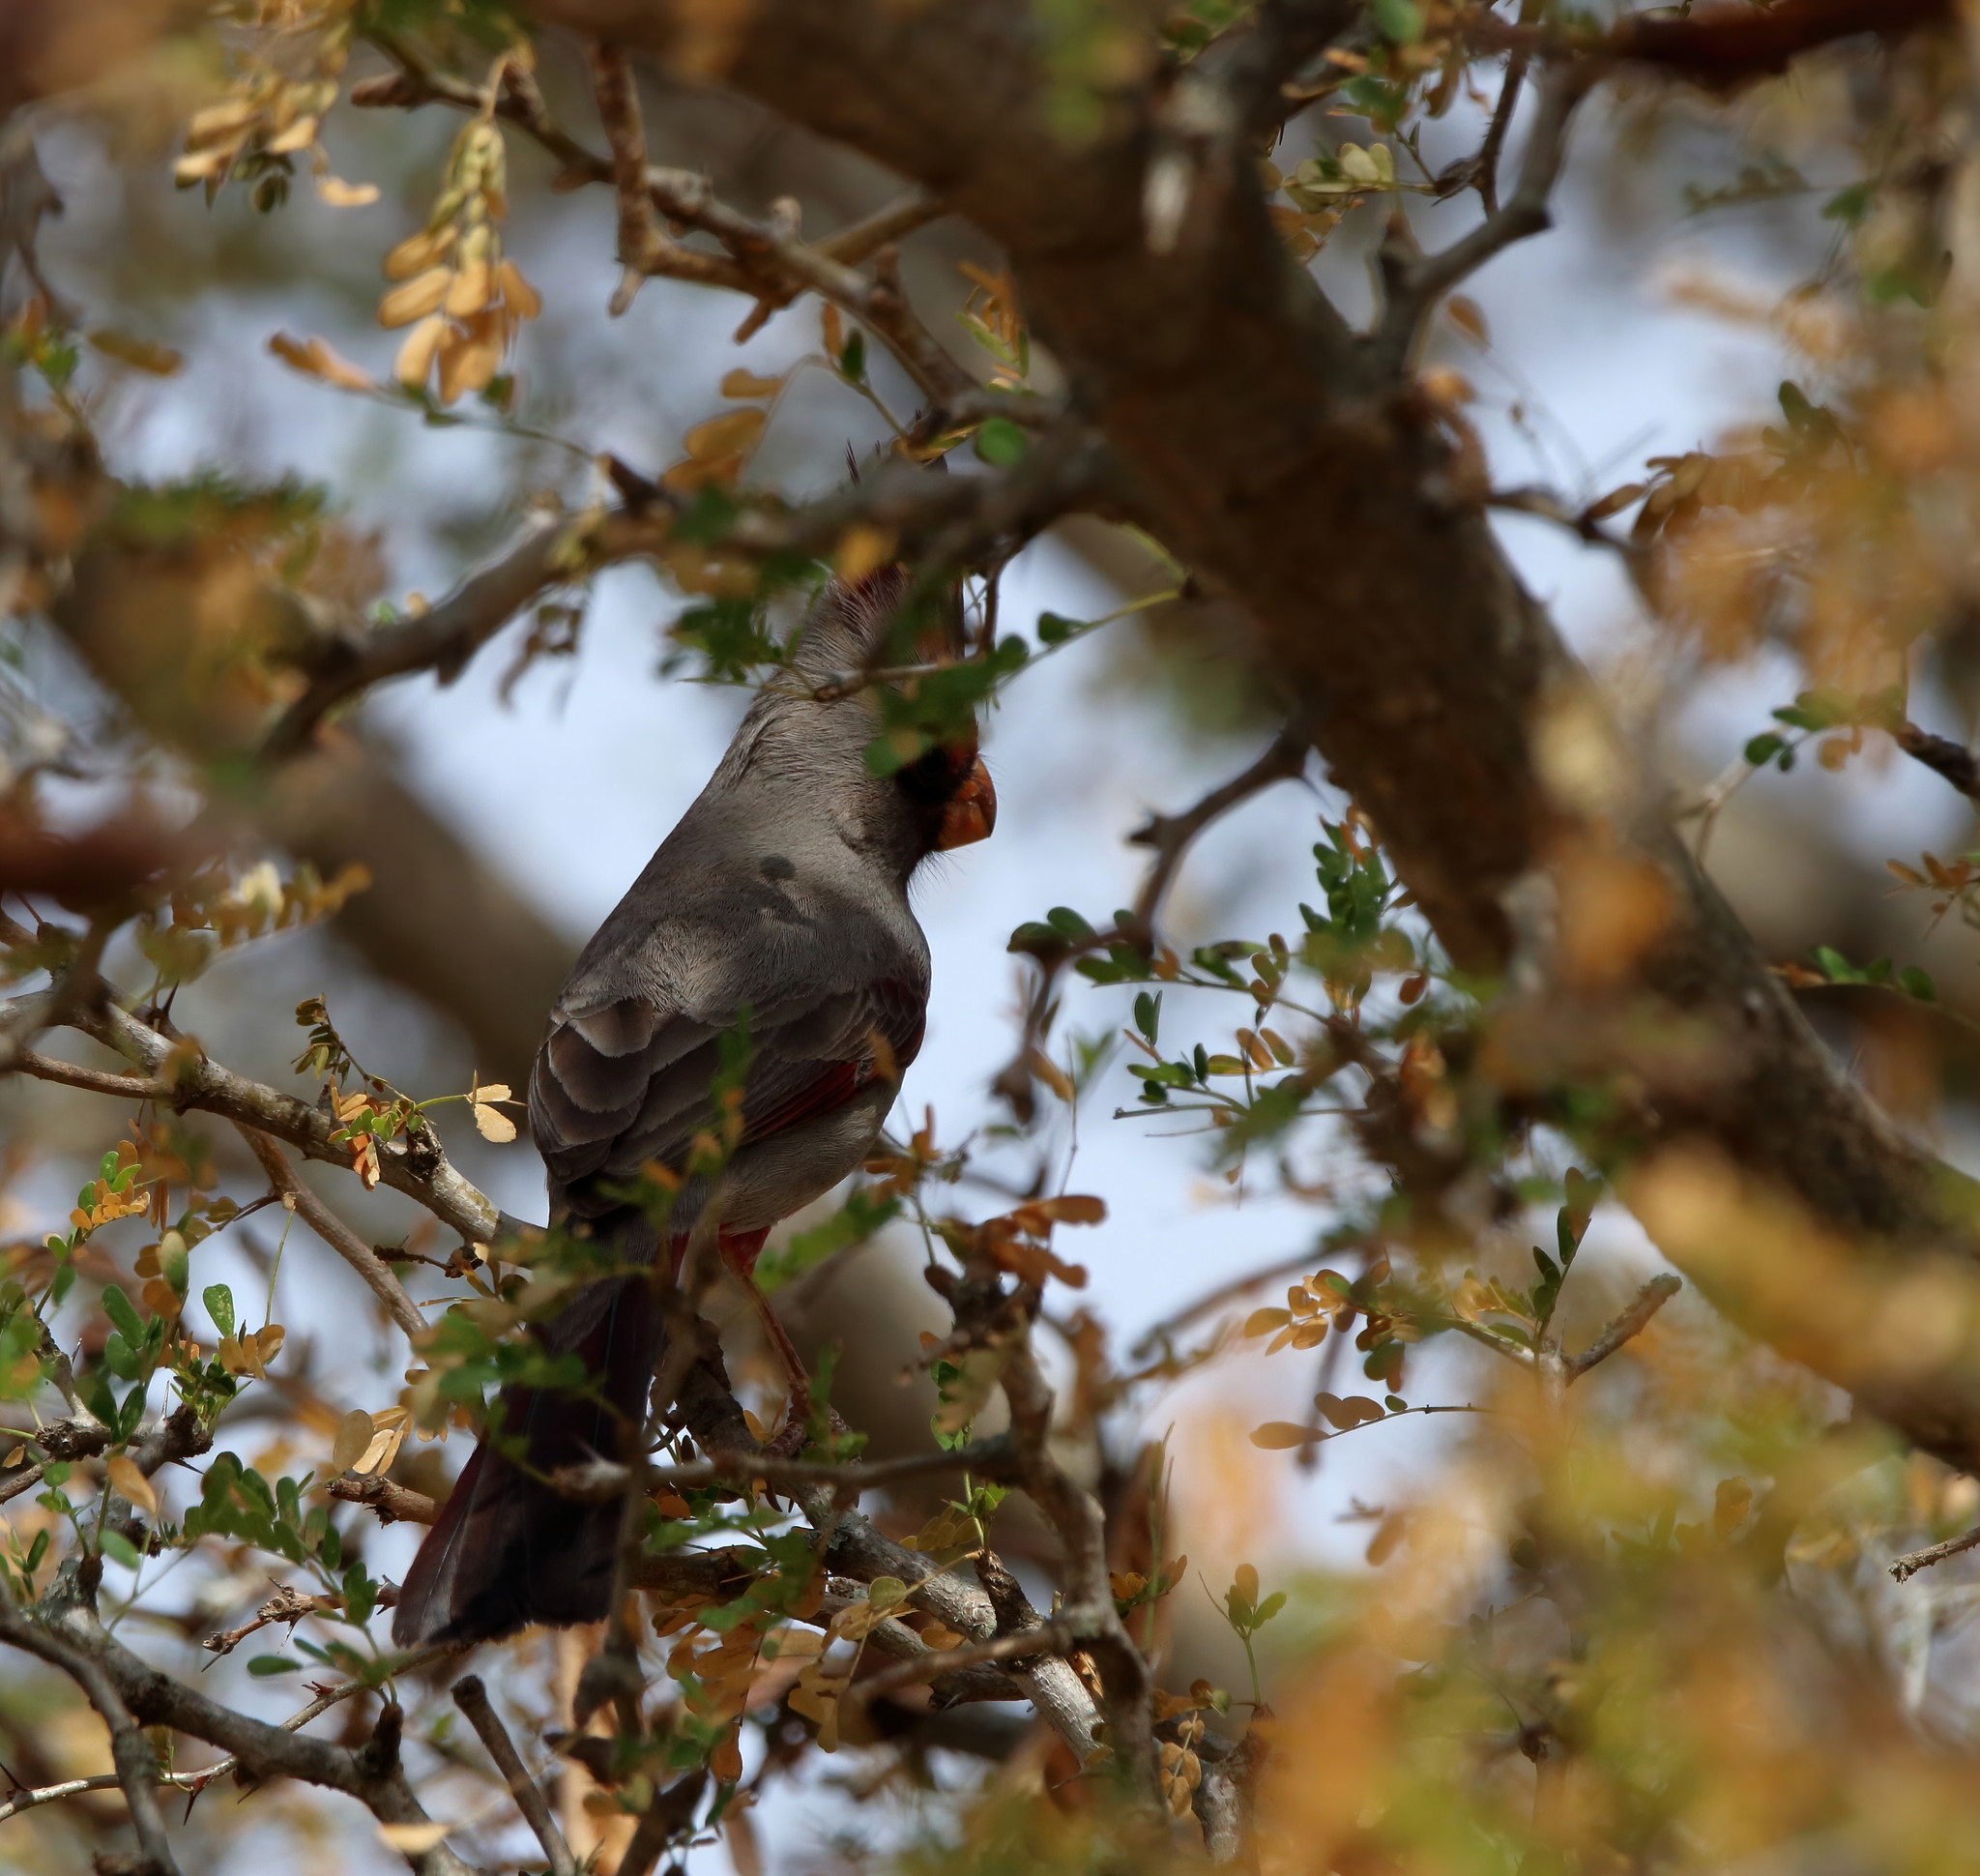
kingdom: Animalia
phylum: Chordata
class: Aves
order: Passeriformes
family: Cardinalidae
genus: Cardinalis
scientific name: Cardinalis sinuatus
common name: Pyrrhuloxia
